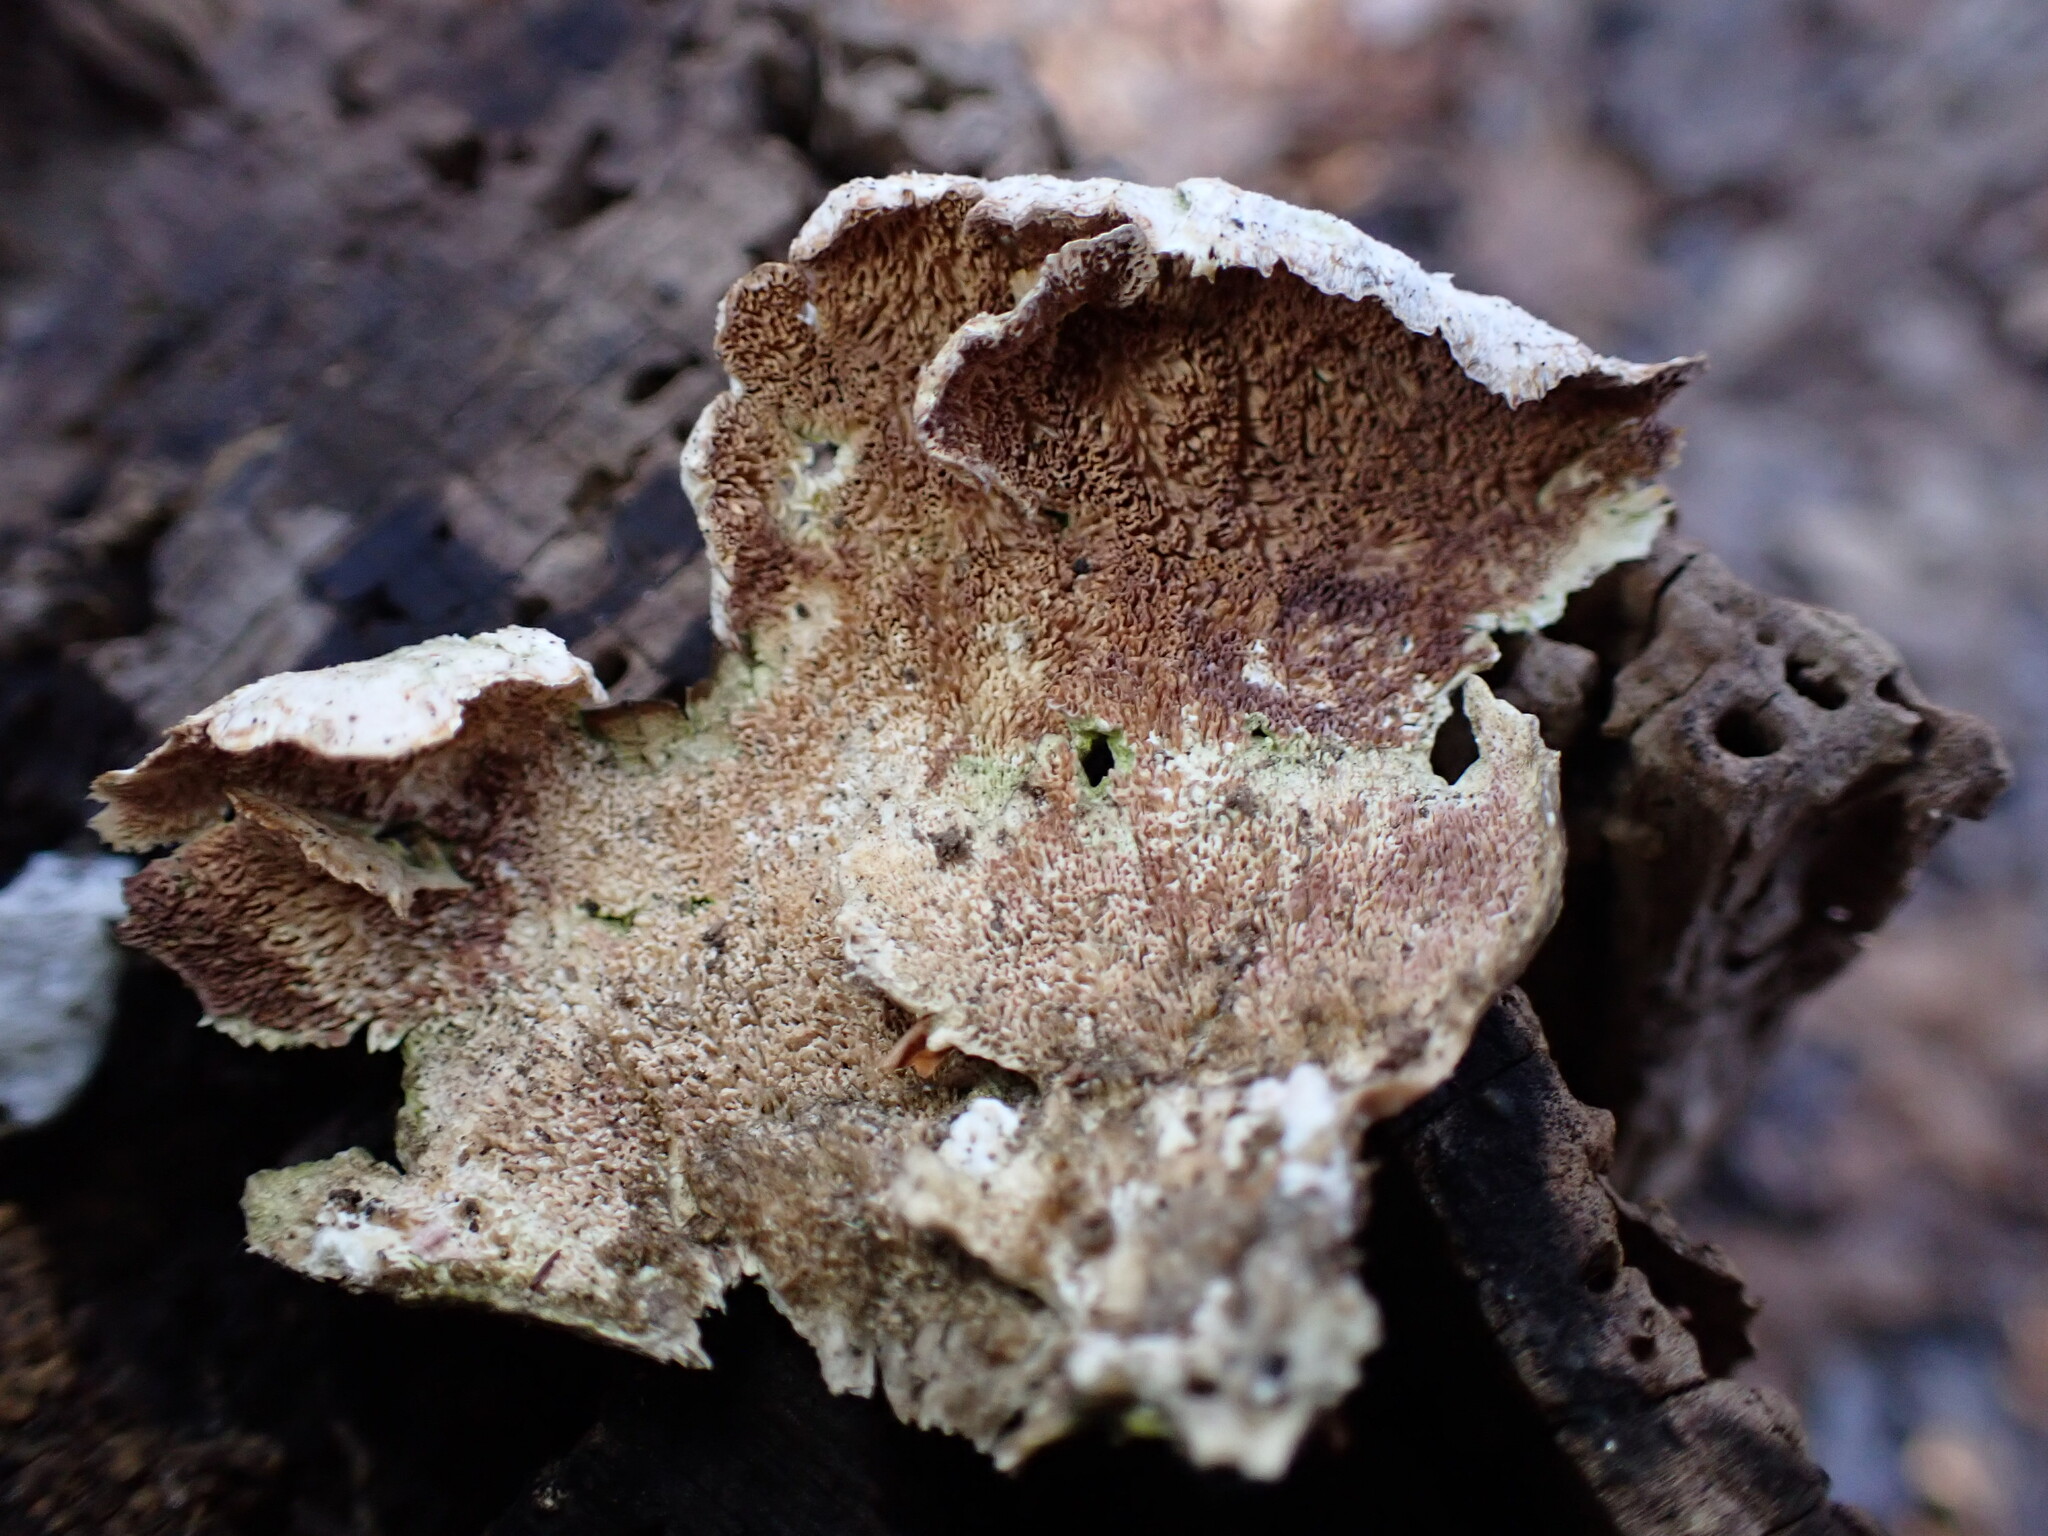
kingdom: Fungi
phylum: Basidiomycota
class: Agaricomycetes
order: Hymenochaetales
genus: Trichaptum
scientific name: Trichaptum biforme
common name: Violet-toothed polypore
